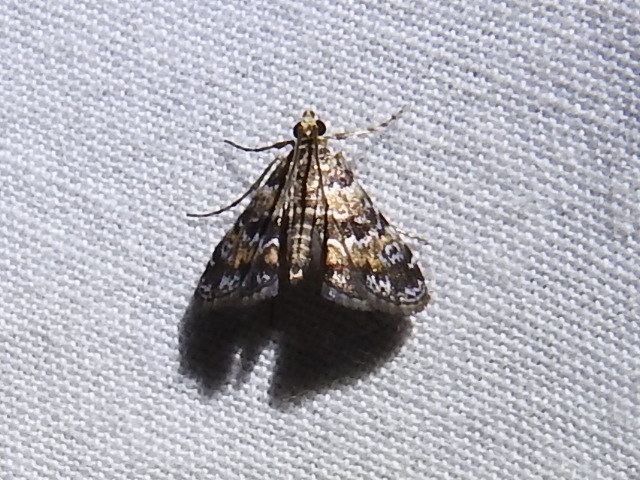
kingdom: Animalia
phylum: Arthropoda
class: Insecta
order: Lepidoptera
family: Crambidae
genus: Elophila
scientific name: Elophila obliteralis
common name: Waterlily leafcutter moth
